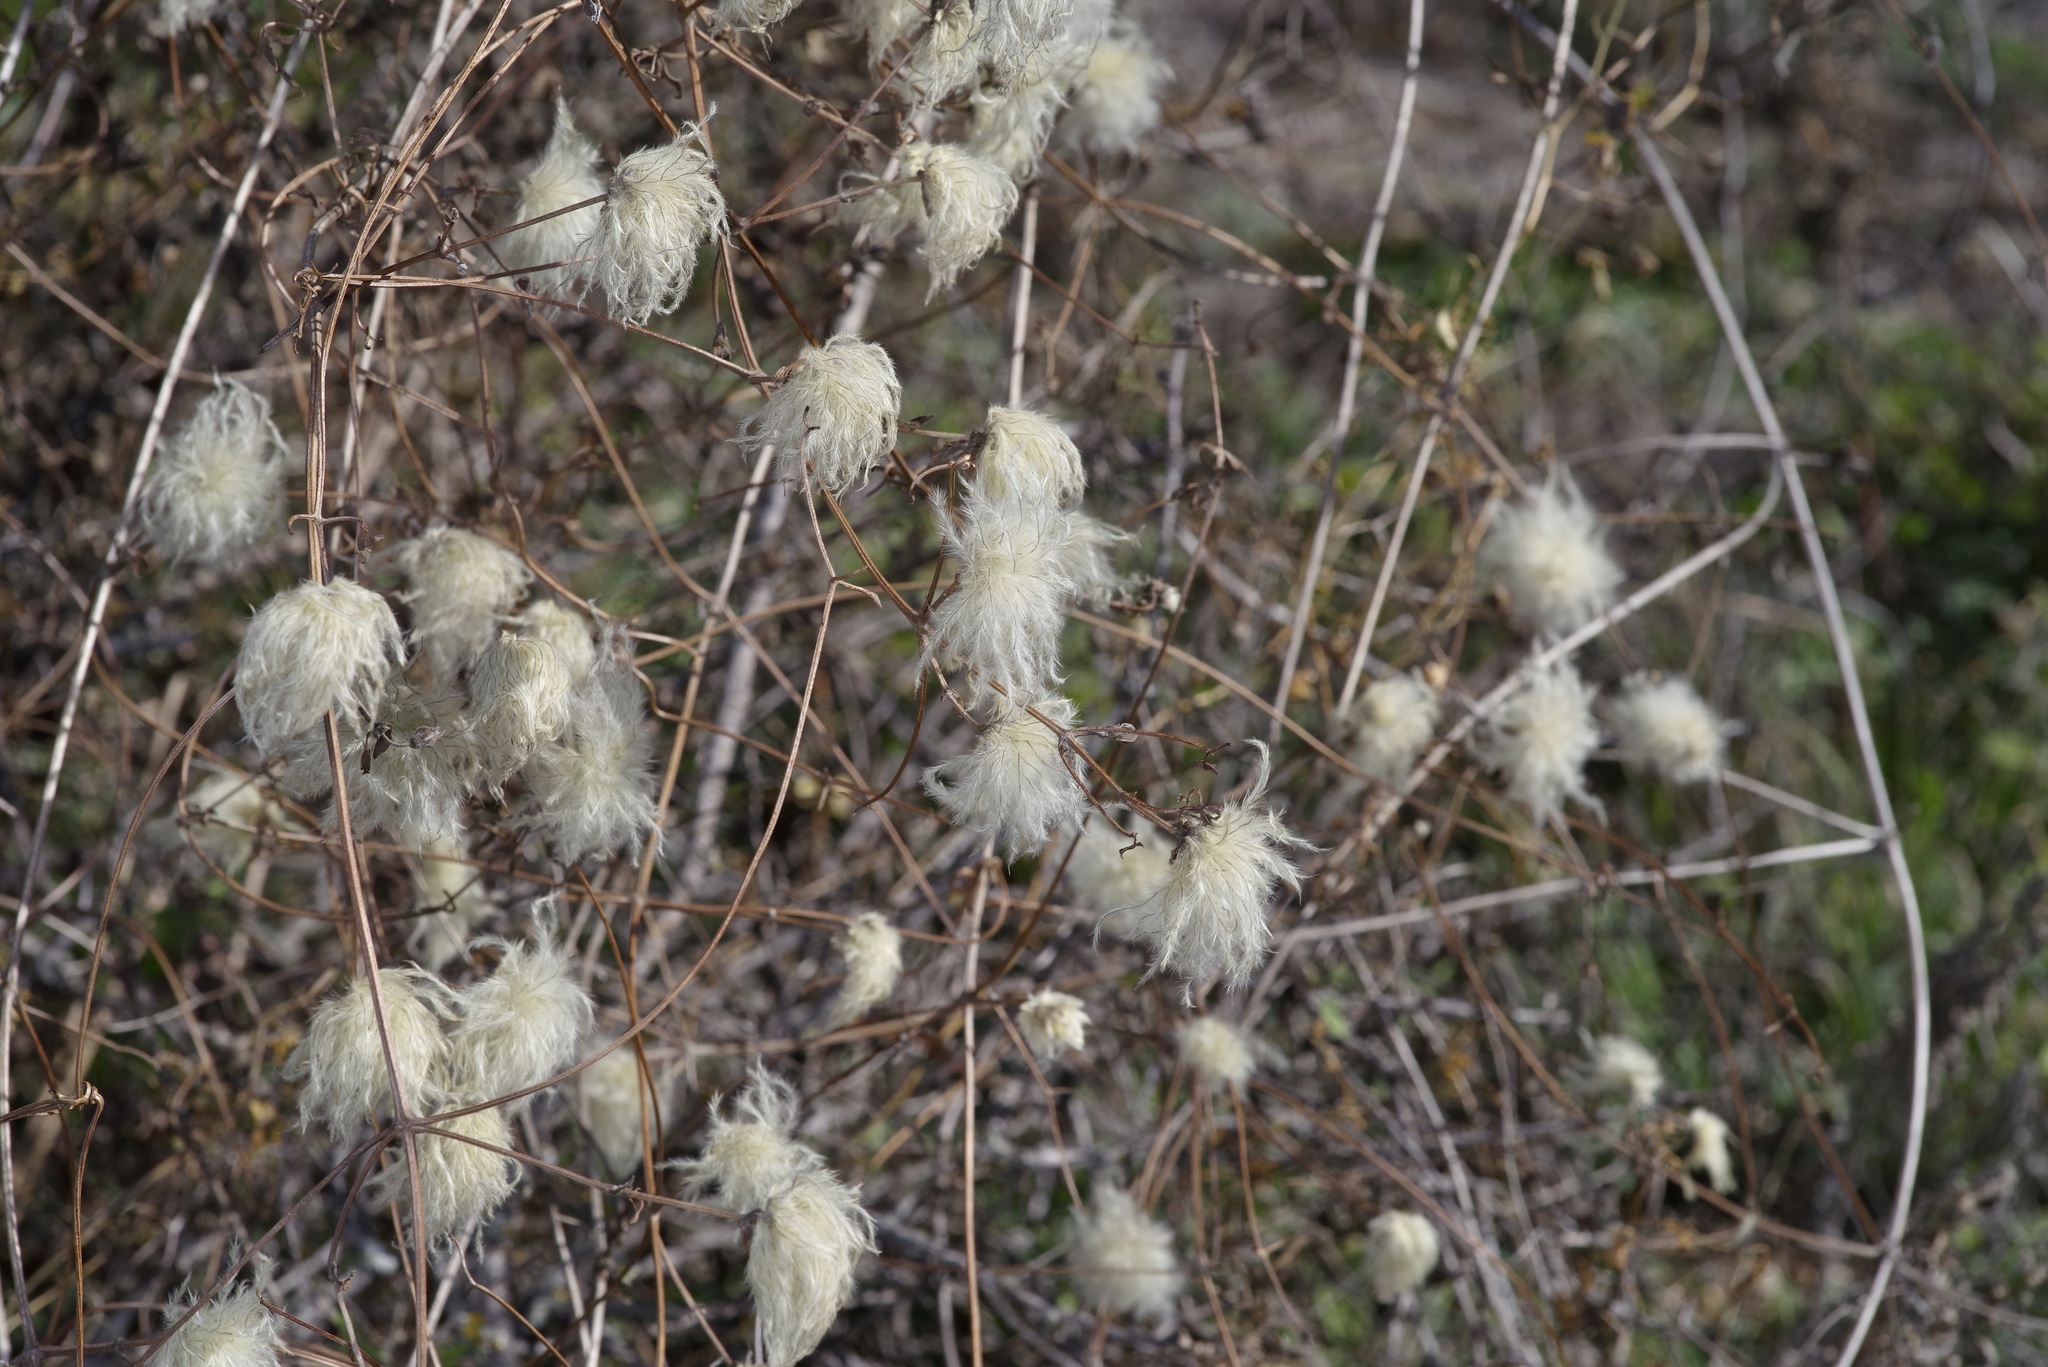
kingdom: Plantae
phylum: Tracheophyta
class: Magnoliopsida
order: Ranunculales
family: Ranunculaceae
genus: Clematis
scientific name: Clematis drummondii
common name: Texas virgin's bower
